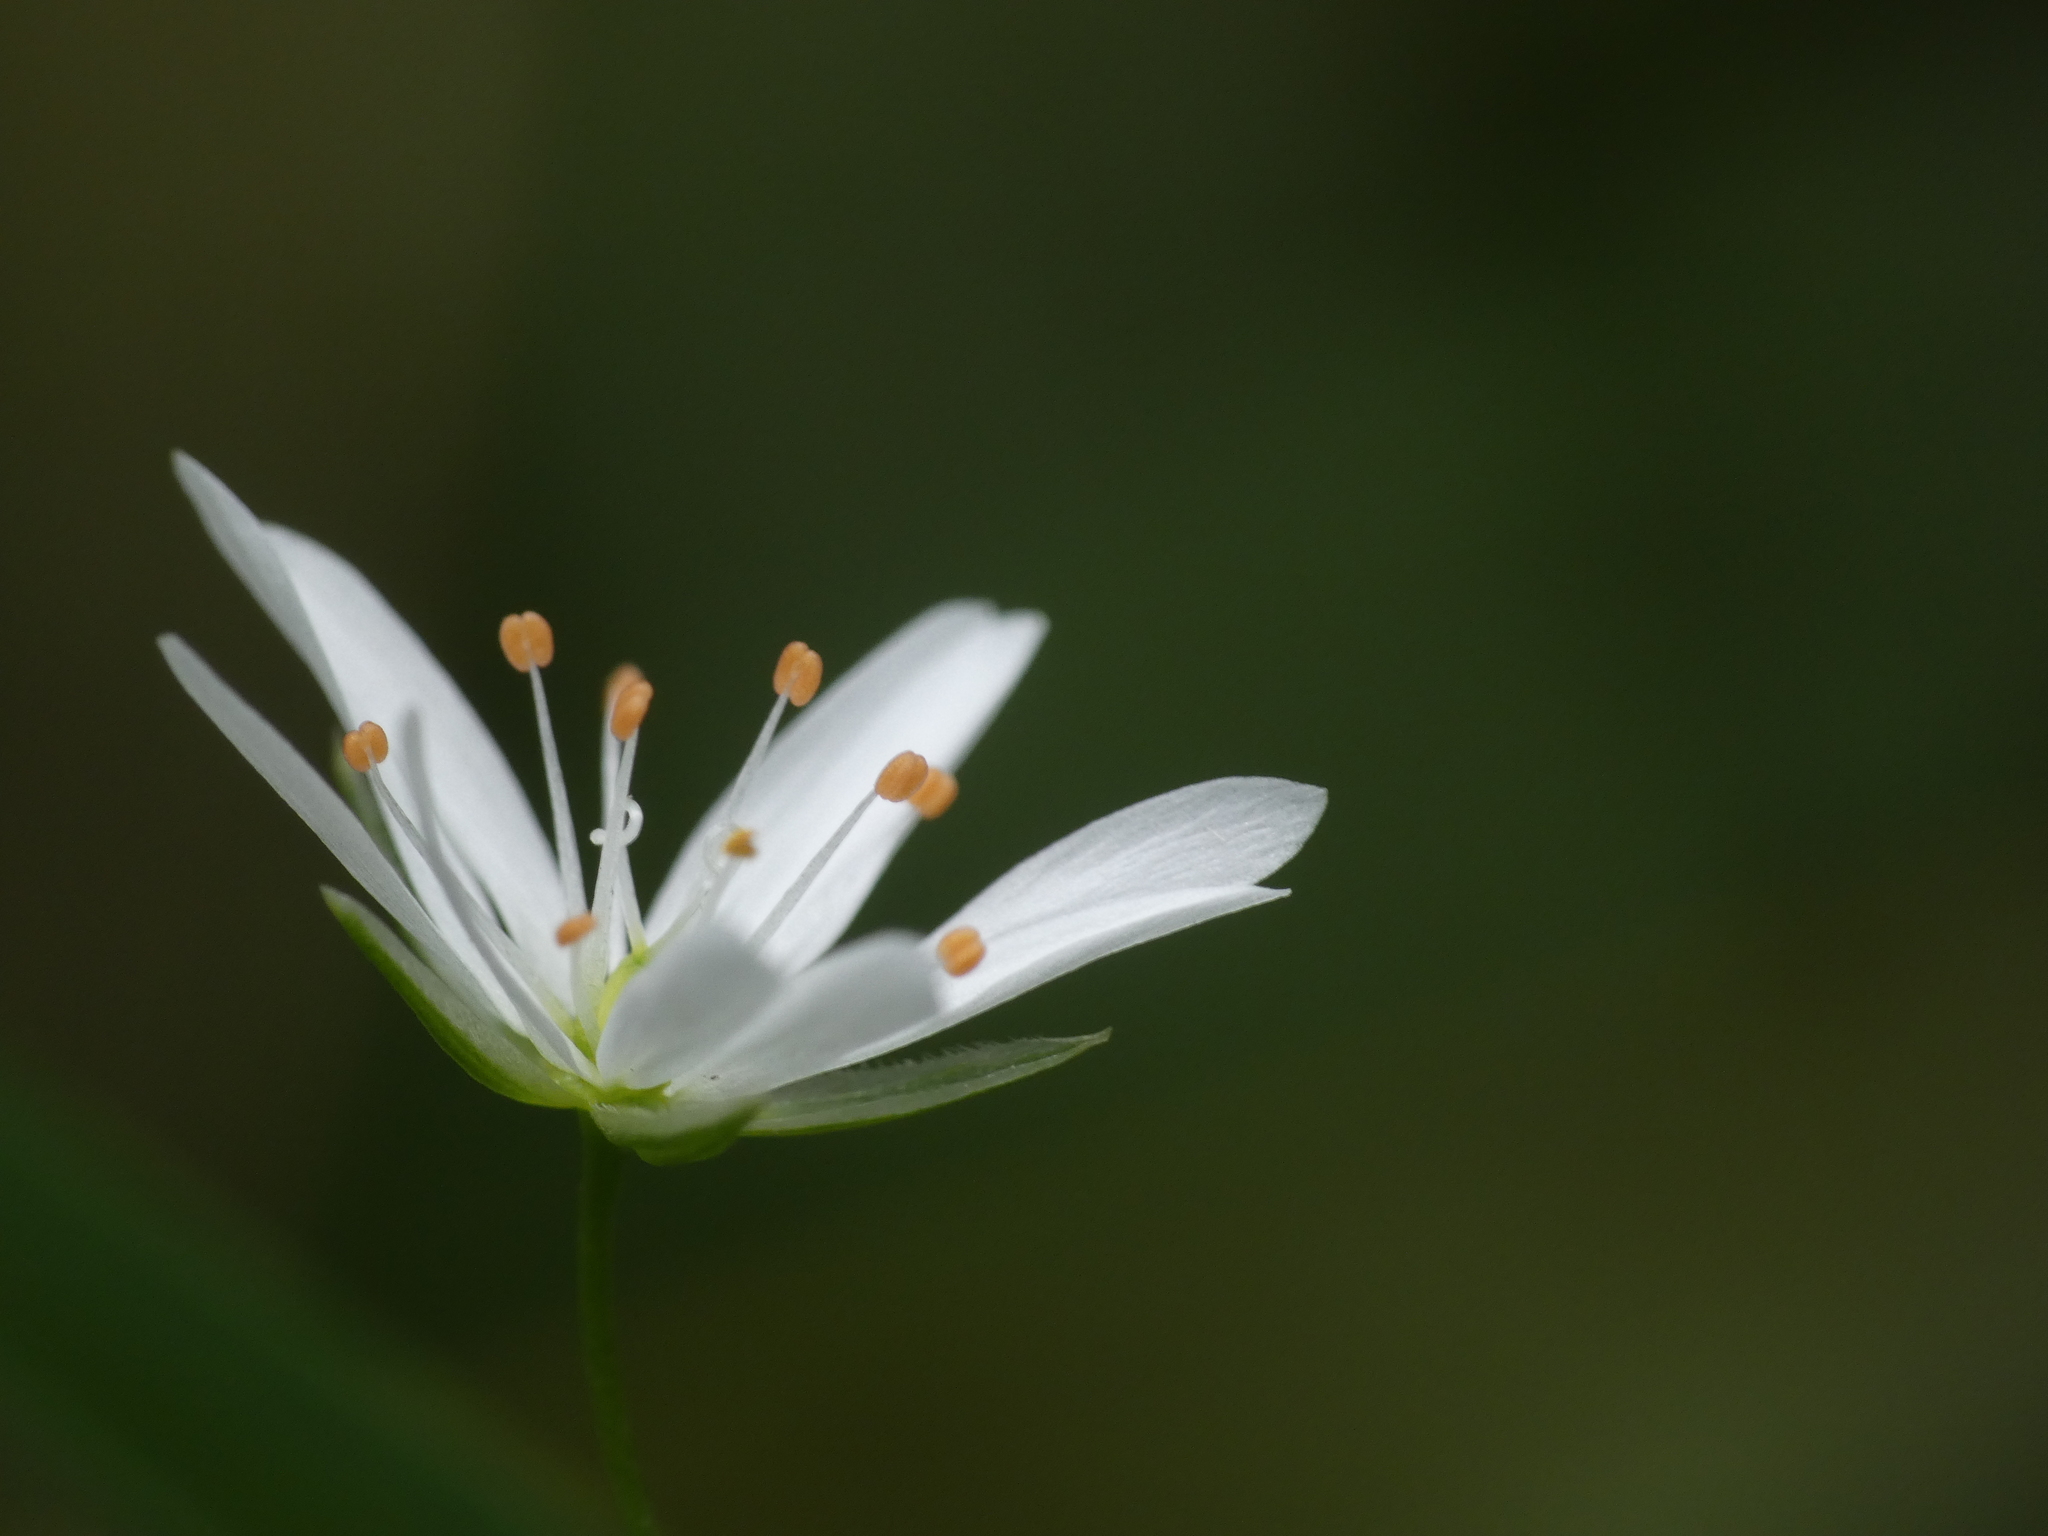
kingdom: Plantae
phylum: Tracheophyta
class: Magnoliopsida
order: Caryophyllales
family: Caryophyllaceae
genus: Stellaria
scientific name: Stellaria graminea
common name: Grass-like starwort
